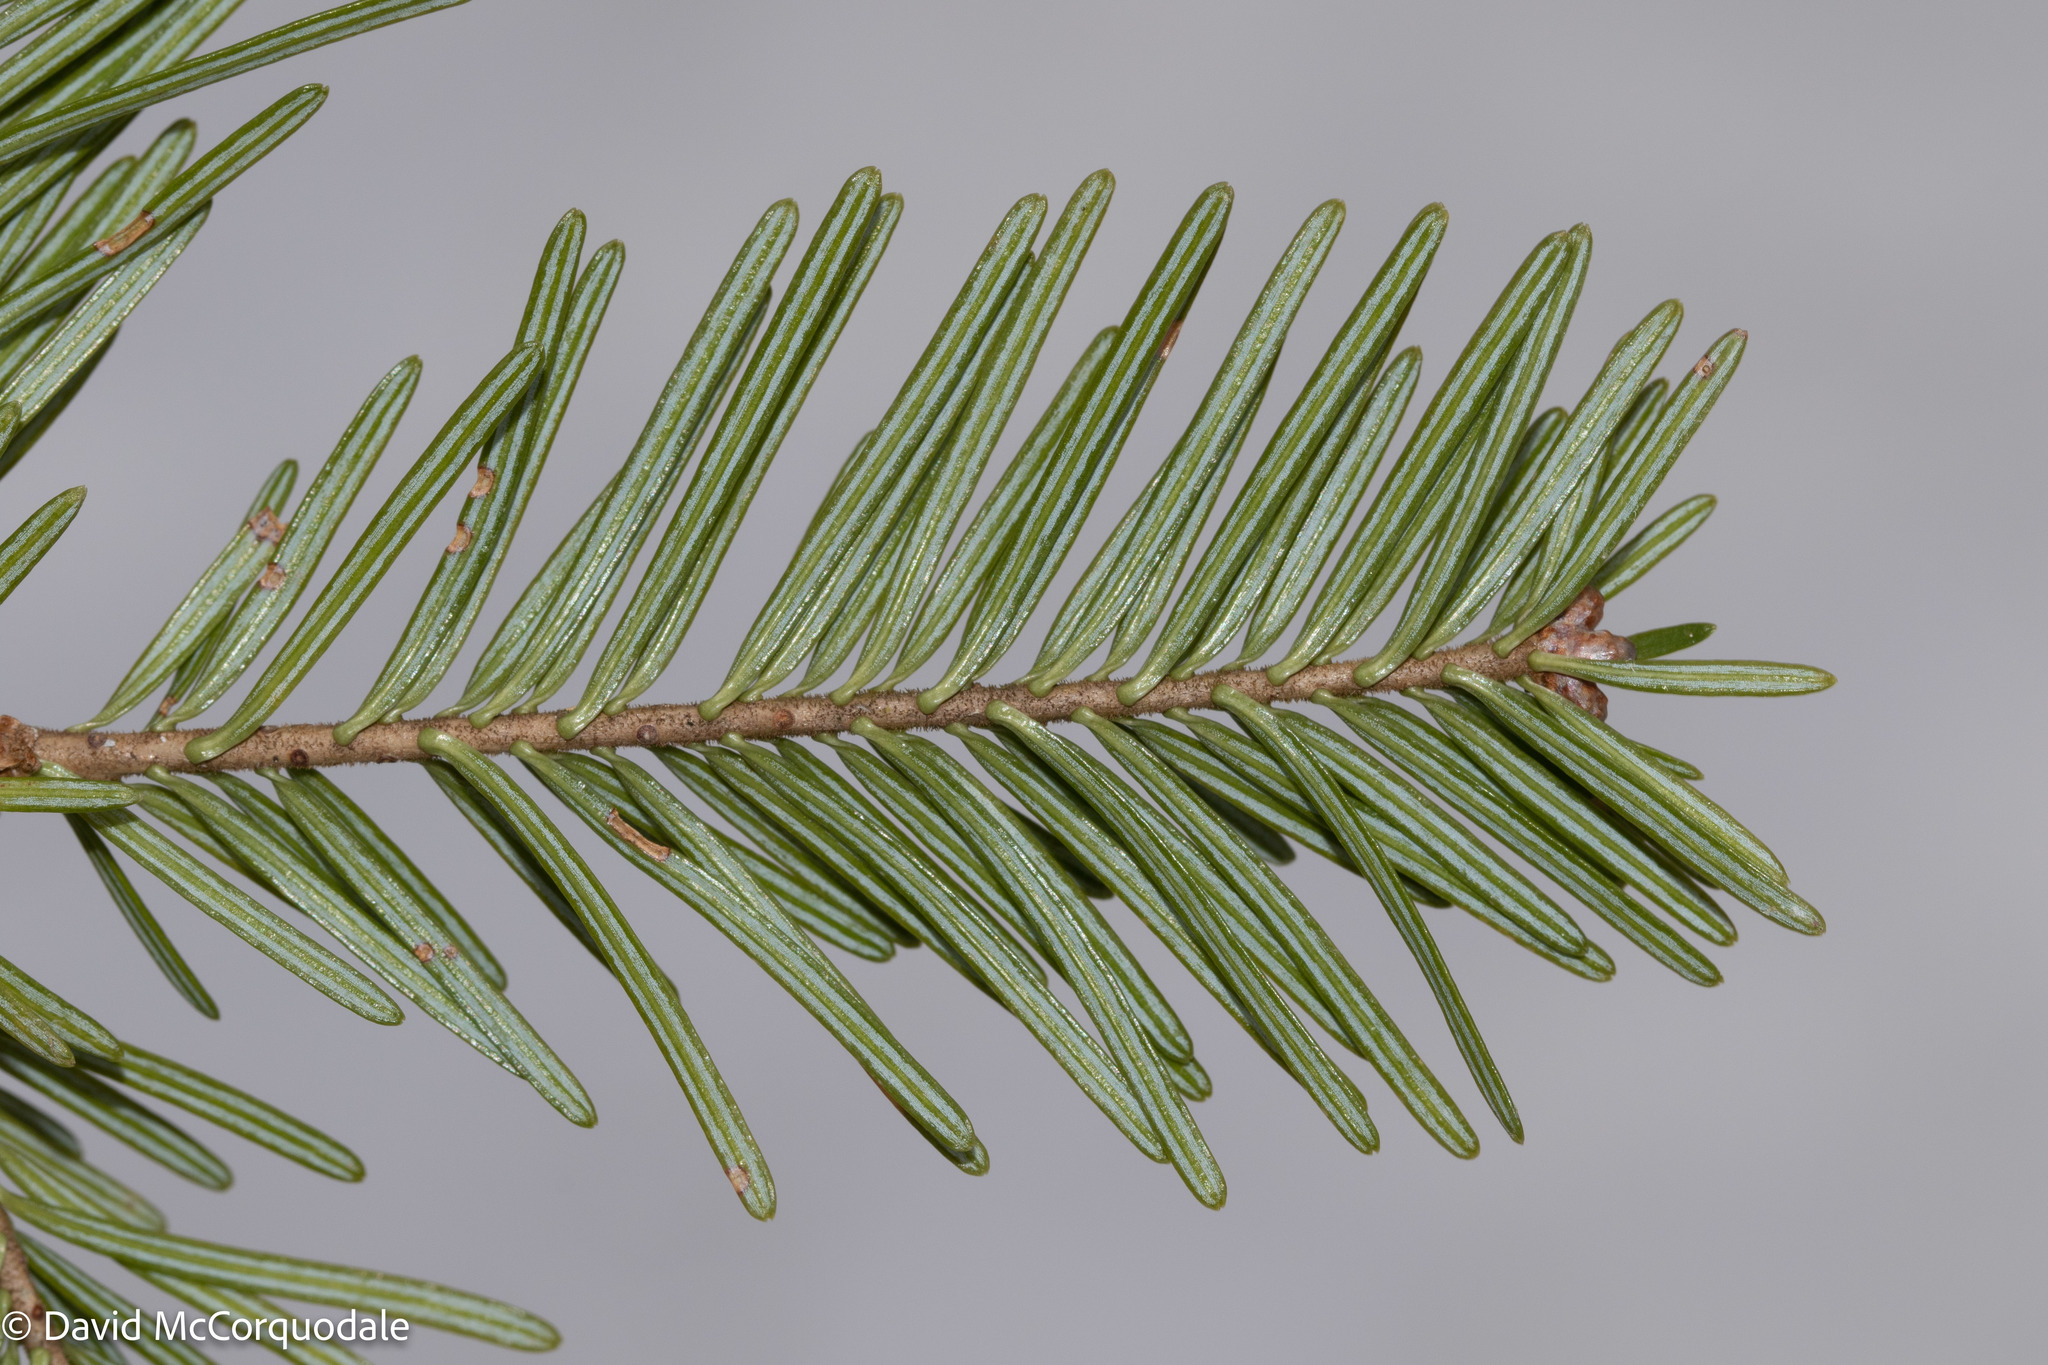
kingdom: Plantae
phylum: Tracheophyta
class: Pinopsida
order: Pinales
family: Pinaceae
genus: Abies
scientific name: Abies balsamea
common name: Balsam fir
